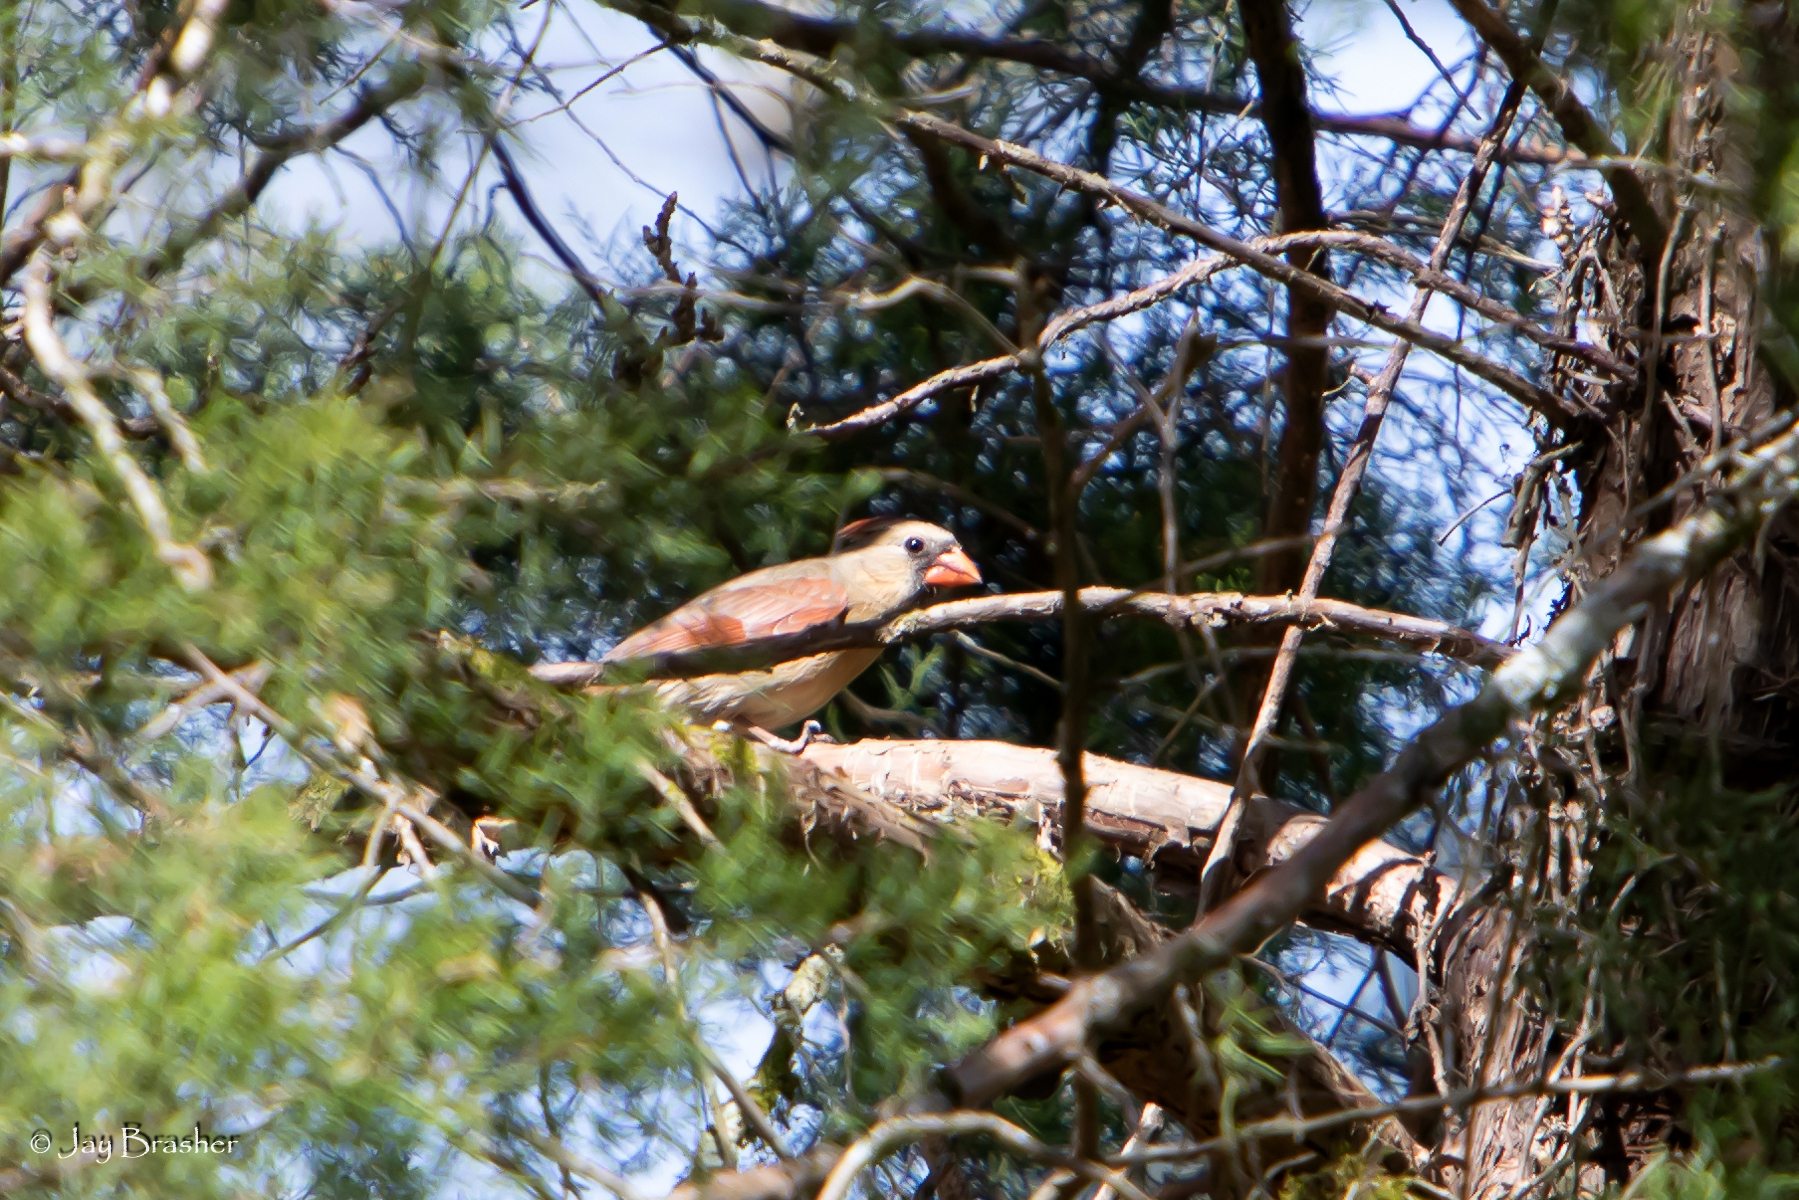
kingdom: Animalia
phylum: Chordata
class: Aves
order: Passeriformes
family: Cardinalidae
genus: Cardinalis
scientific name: Cardinalis cardinalis
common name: Northern cardinal
